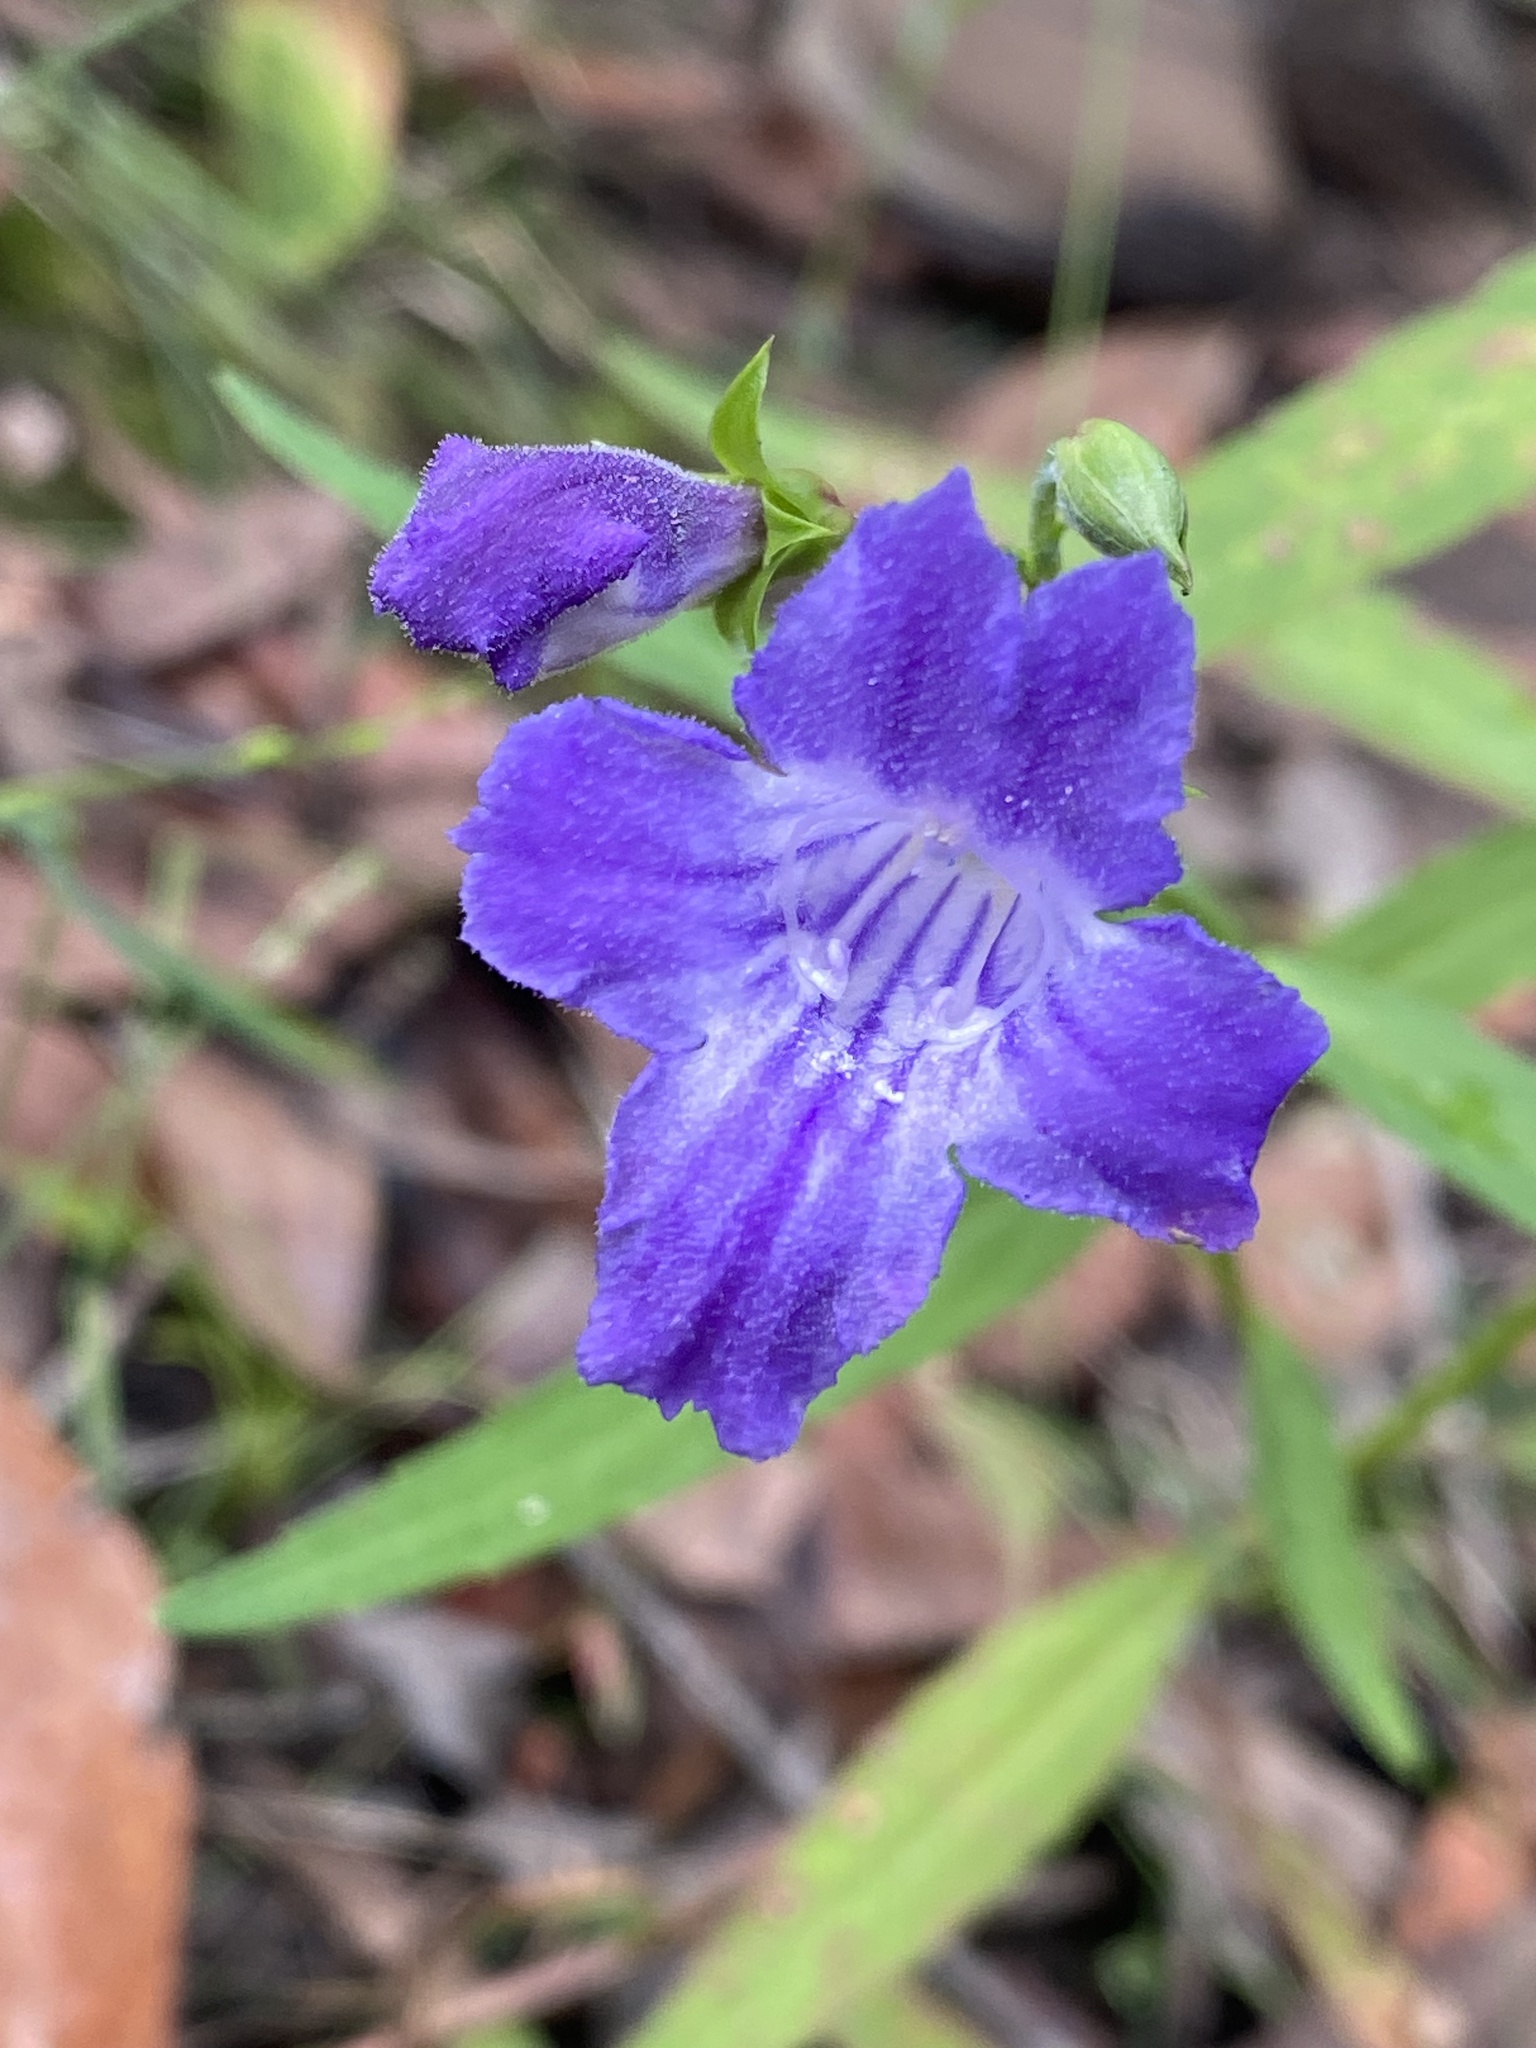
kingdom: Plantae
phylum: Tracheophyta
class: Magnoliopsida
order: Lamiales
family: Linderniaceae
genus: Artanema
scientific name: Artanema fimbriatum
